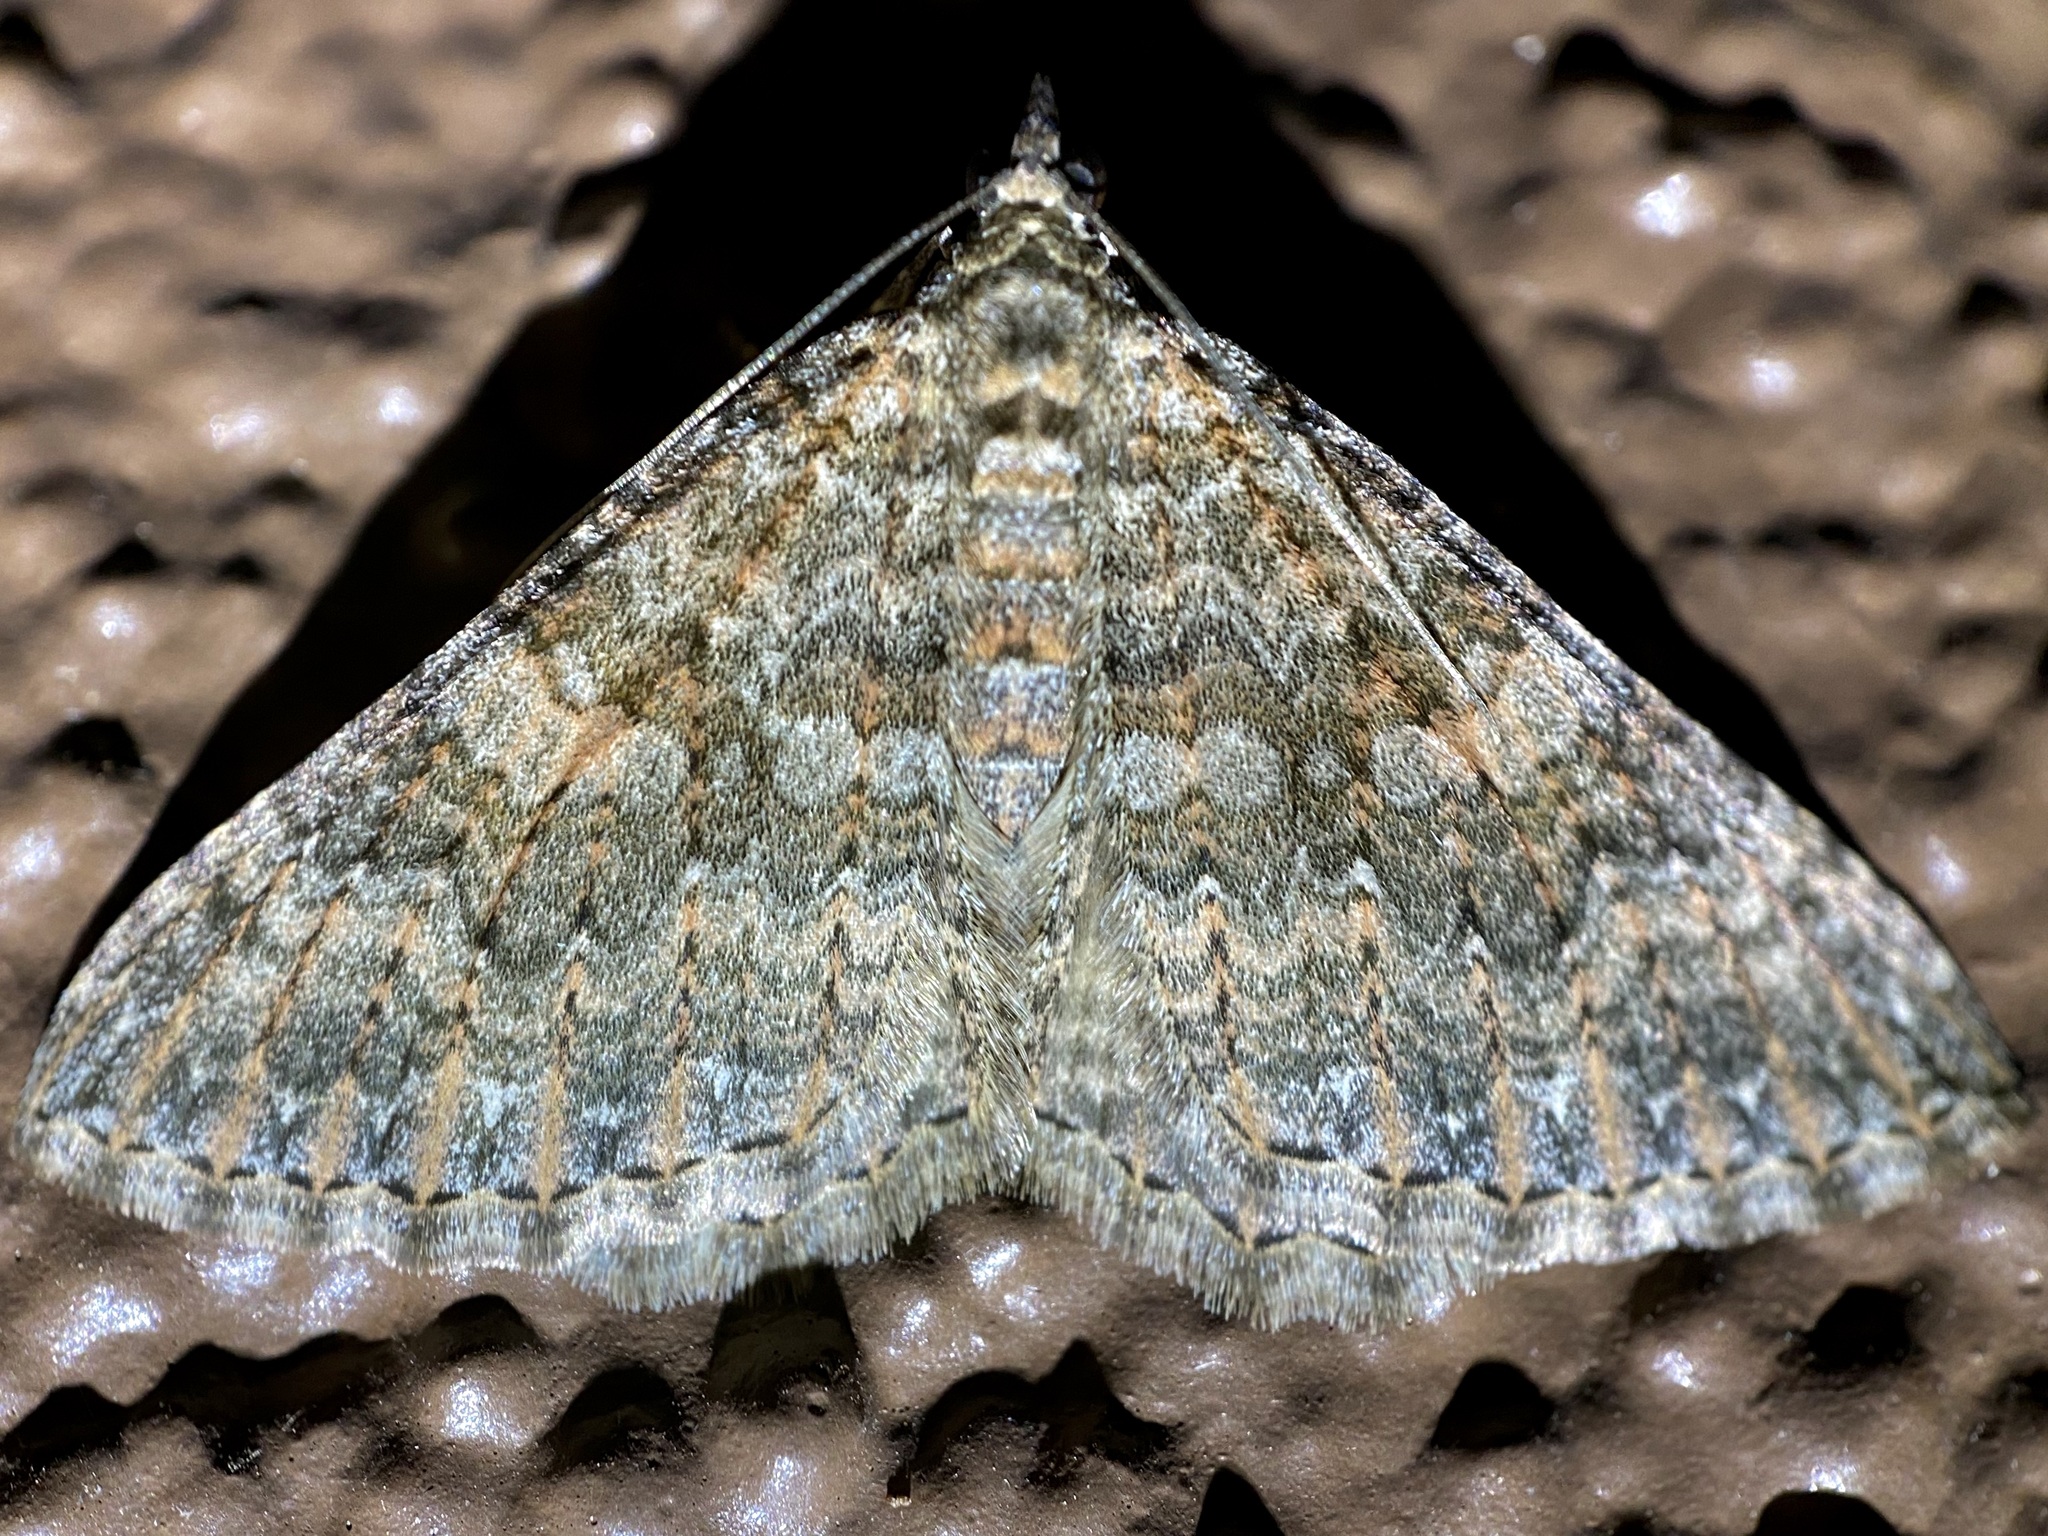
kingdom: Animalia
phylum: Arthropoda
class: Insecta
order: Lepidoptera
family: Geometridae
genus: Archirhoe
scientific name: Archirhoe neomexicana
